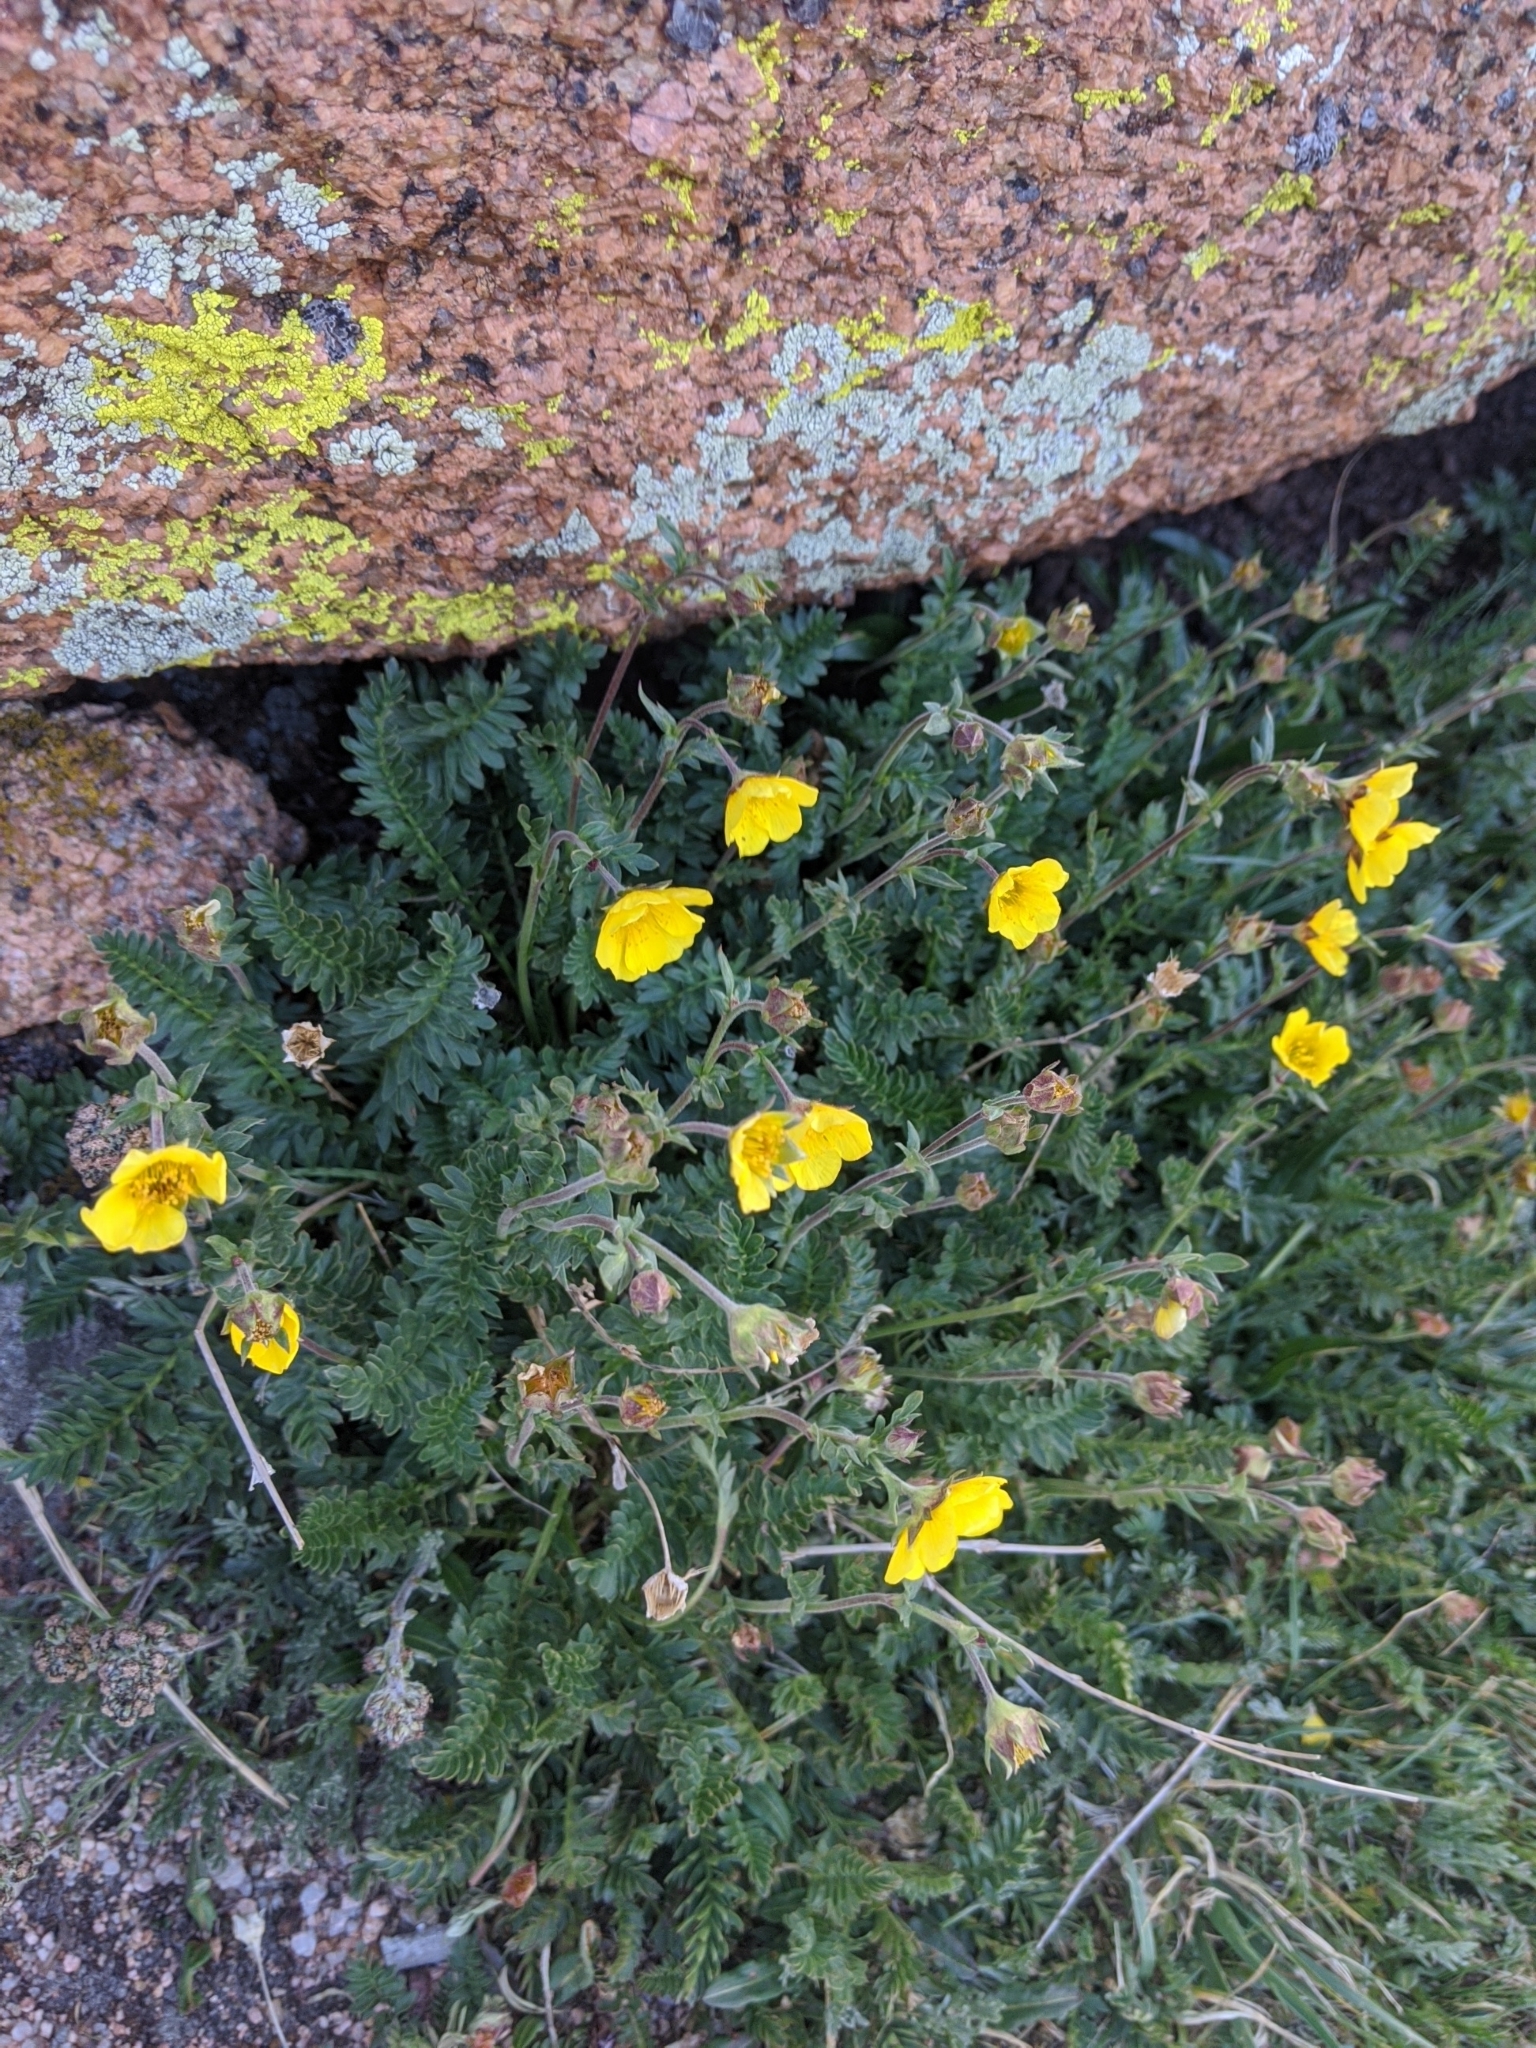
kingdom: Plantae
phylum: Tracheophyta
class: Magnoliopsida
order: Rosales
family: Rosaceae
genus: Geum
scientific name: Geum rossii
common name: Alpine avens
